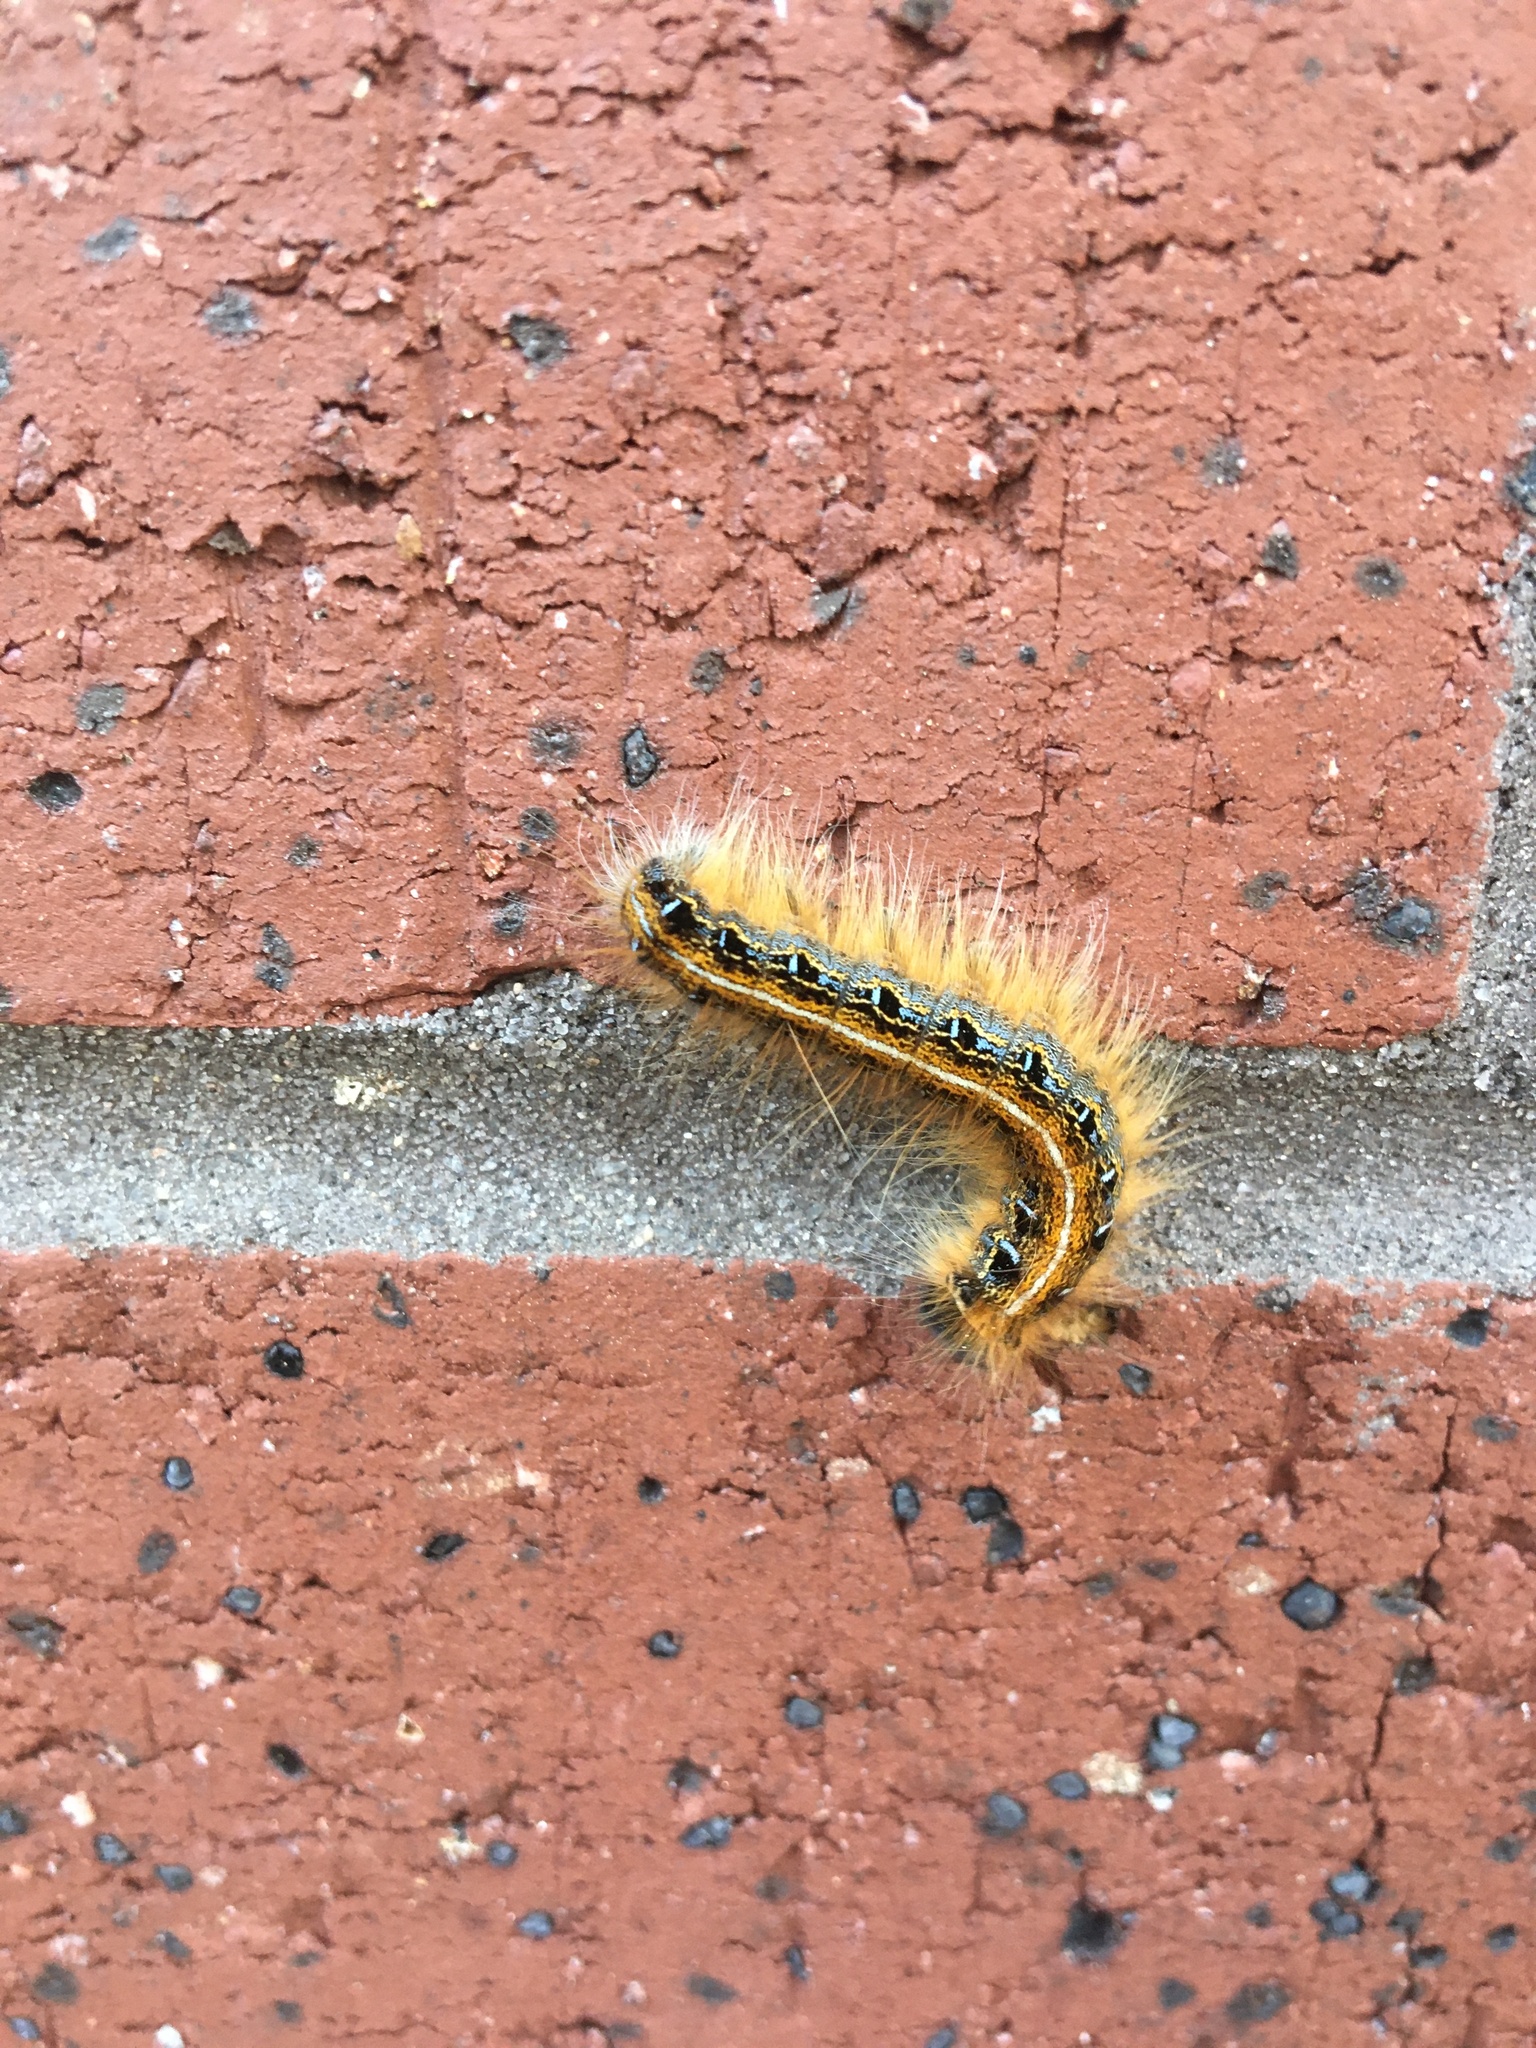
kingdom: Animalia
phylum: Arthropoda
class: Insecta
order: Lepidoptera
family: Lasiocampidae
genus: Malacosoma
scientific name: Malacosoma americana
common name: Eastern tent caterpillar moth
